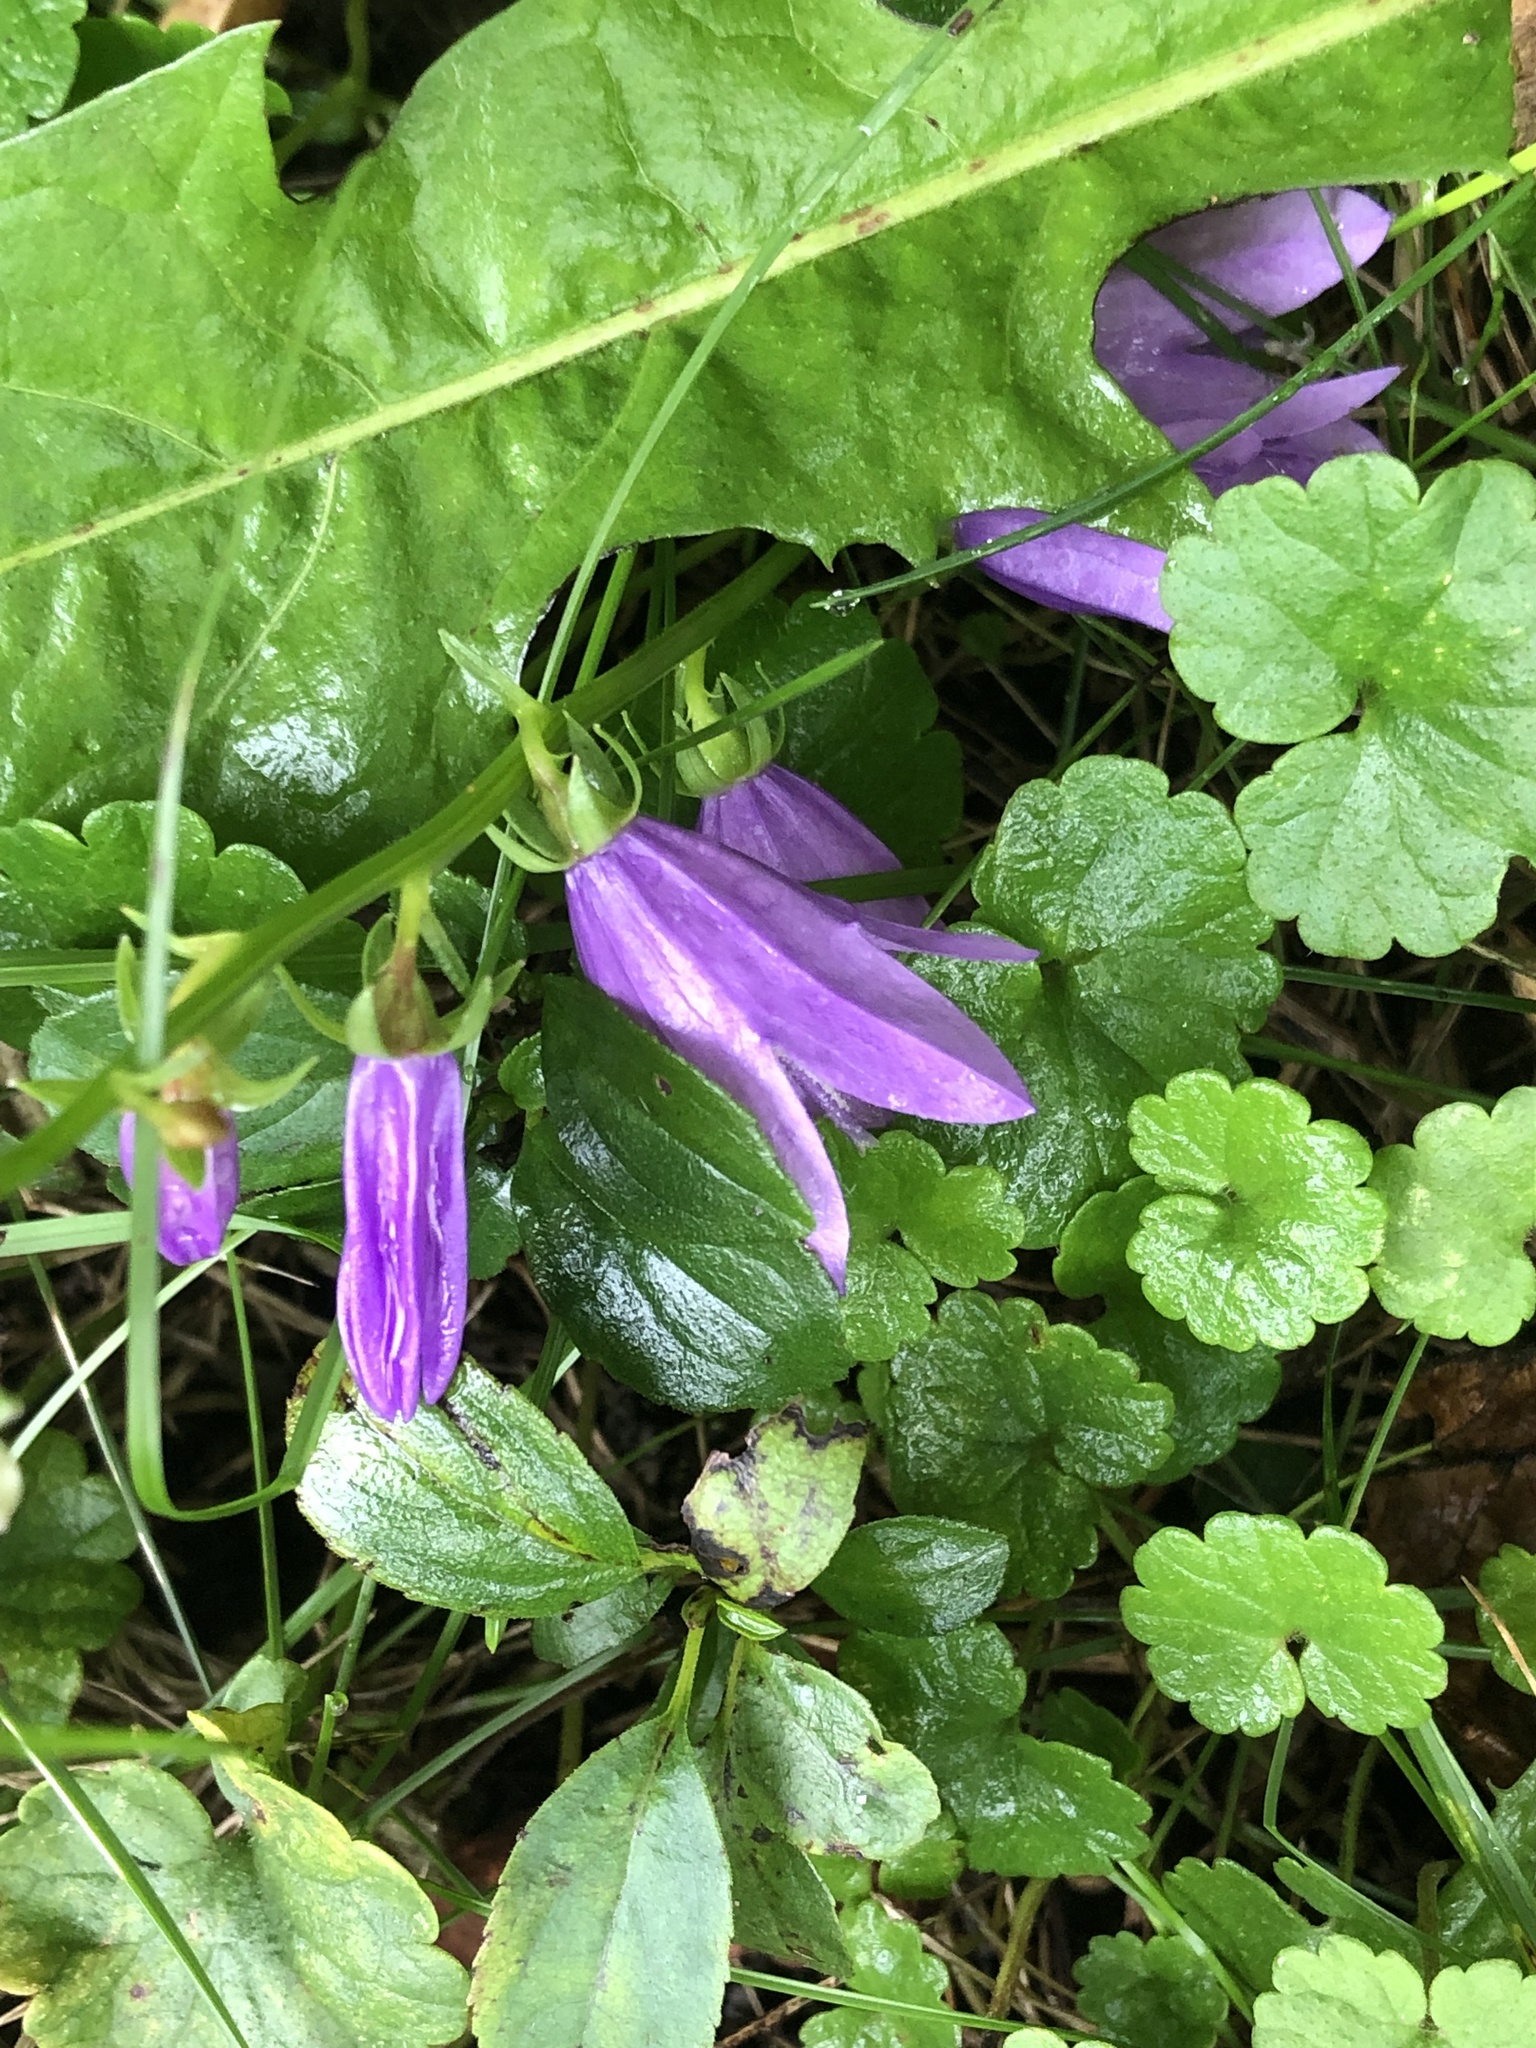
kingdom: Plantae
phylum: Tracheophyta
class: Magnoliopsida
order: Asterales
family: Campanulaceae
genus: Campanula
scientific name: Campanula rapunculoides
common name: Creeping bellflower
